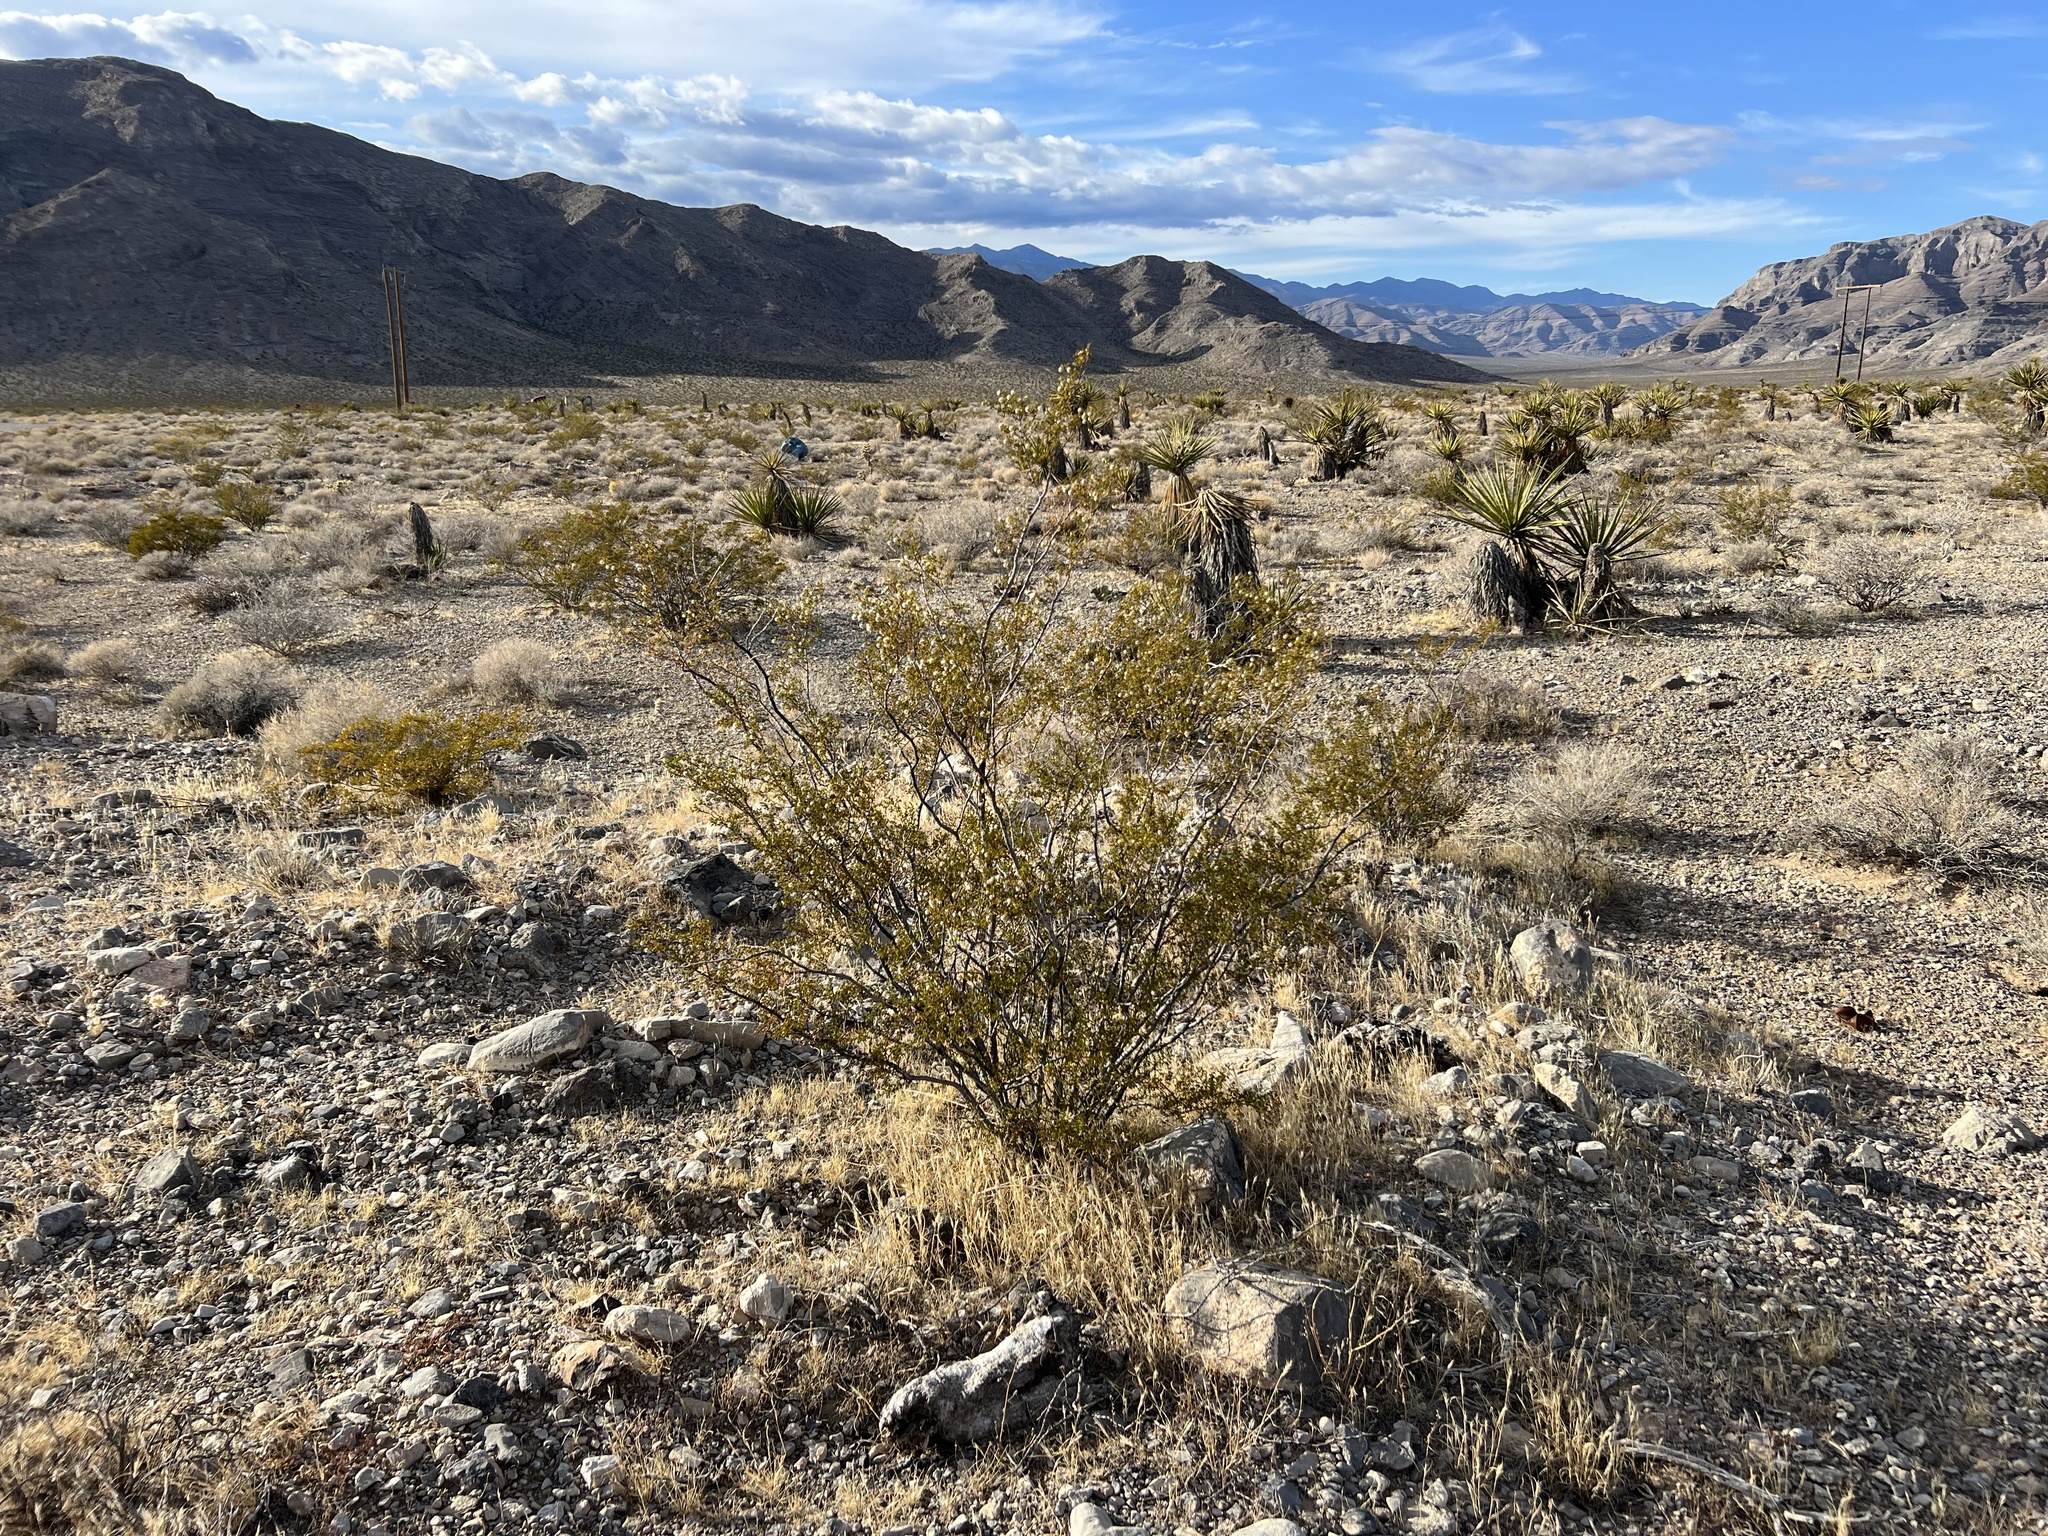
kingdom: Plantae
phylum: Tracheophyta
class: Magnoliopsida
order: Zygophyllales
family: Zygophyllaceae
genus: Larrea
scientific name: Larrea tridentata
